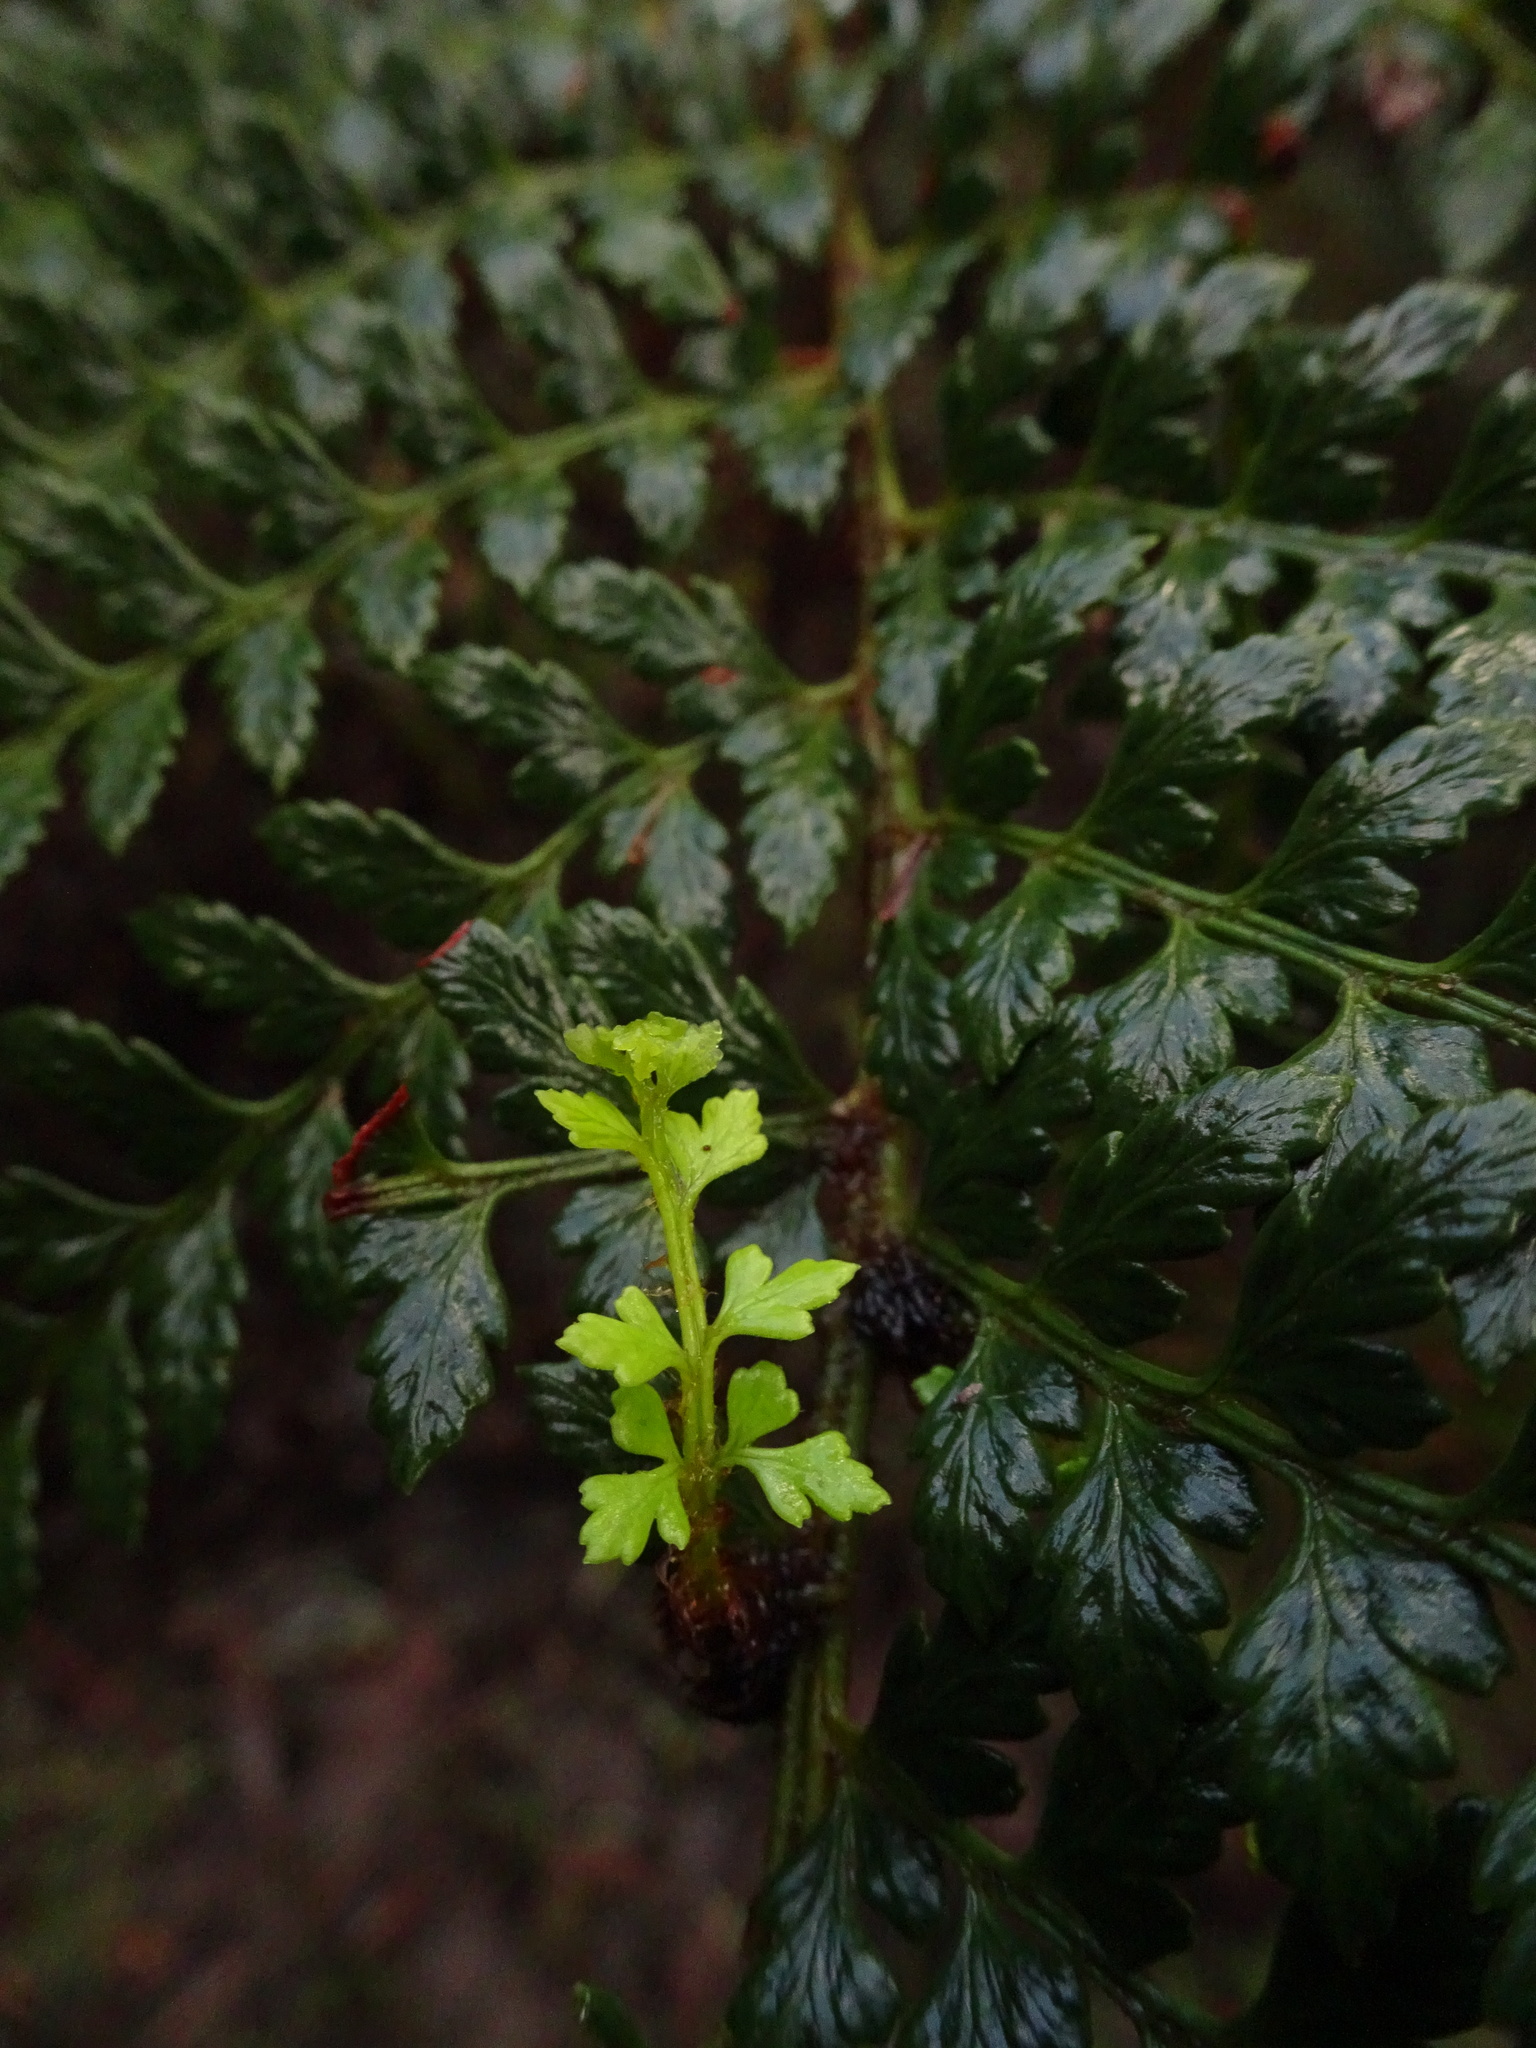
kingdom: Plantae
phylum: Tracheophyta
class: Polypodiopsida
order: Polypodiales
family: Dryopteridaceae
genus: Polystichum
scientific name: Polystichum proliferum
